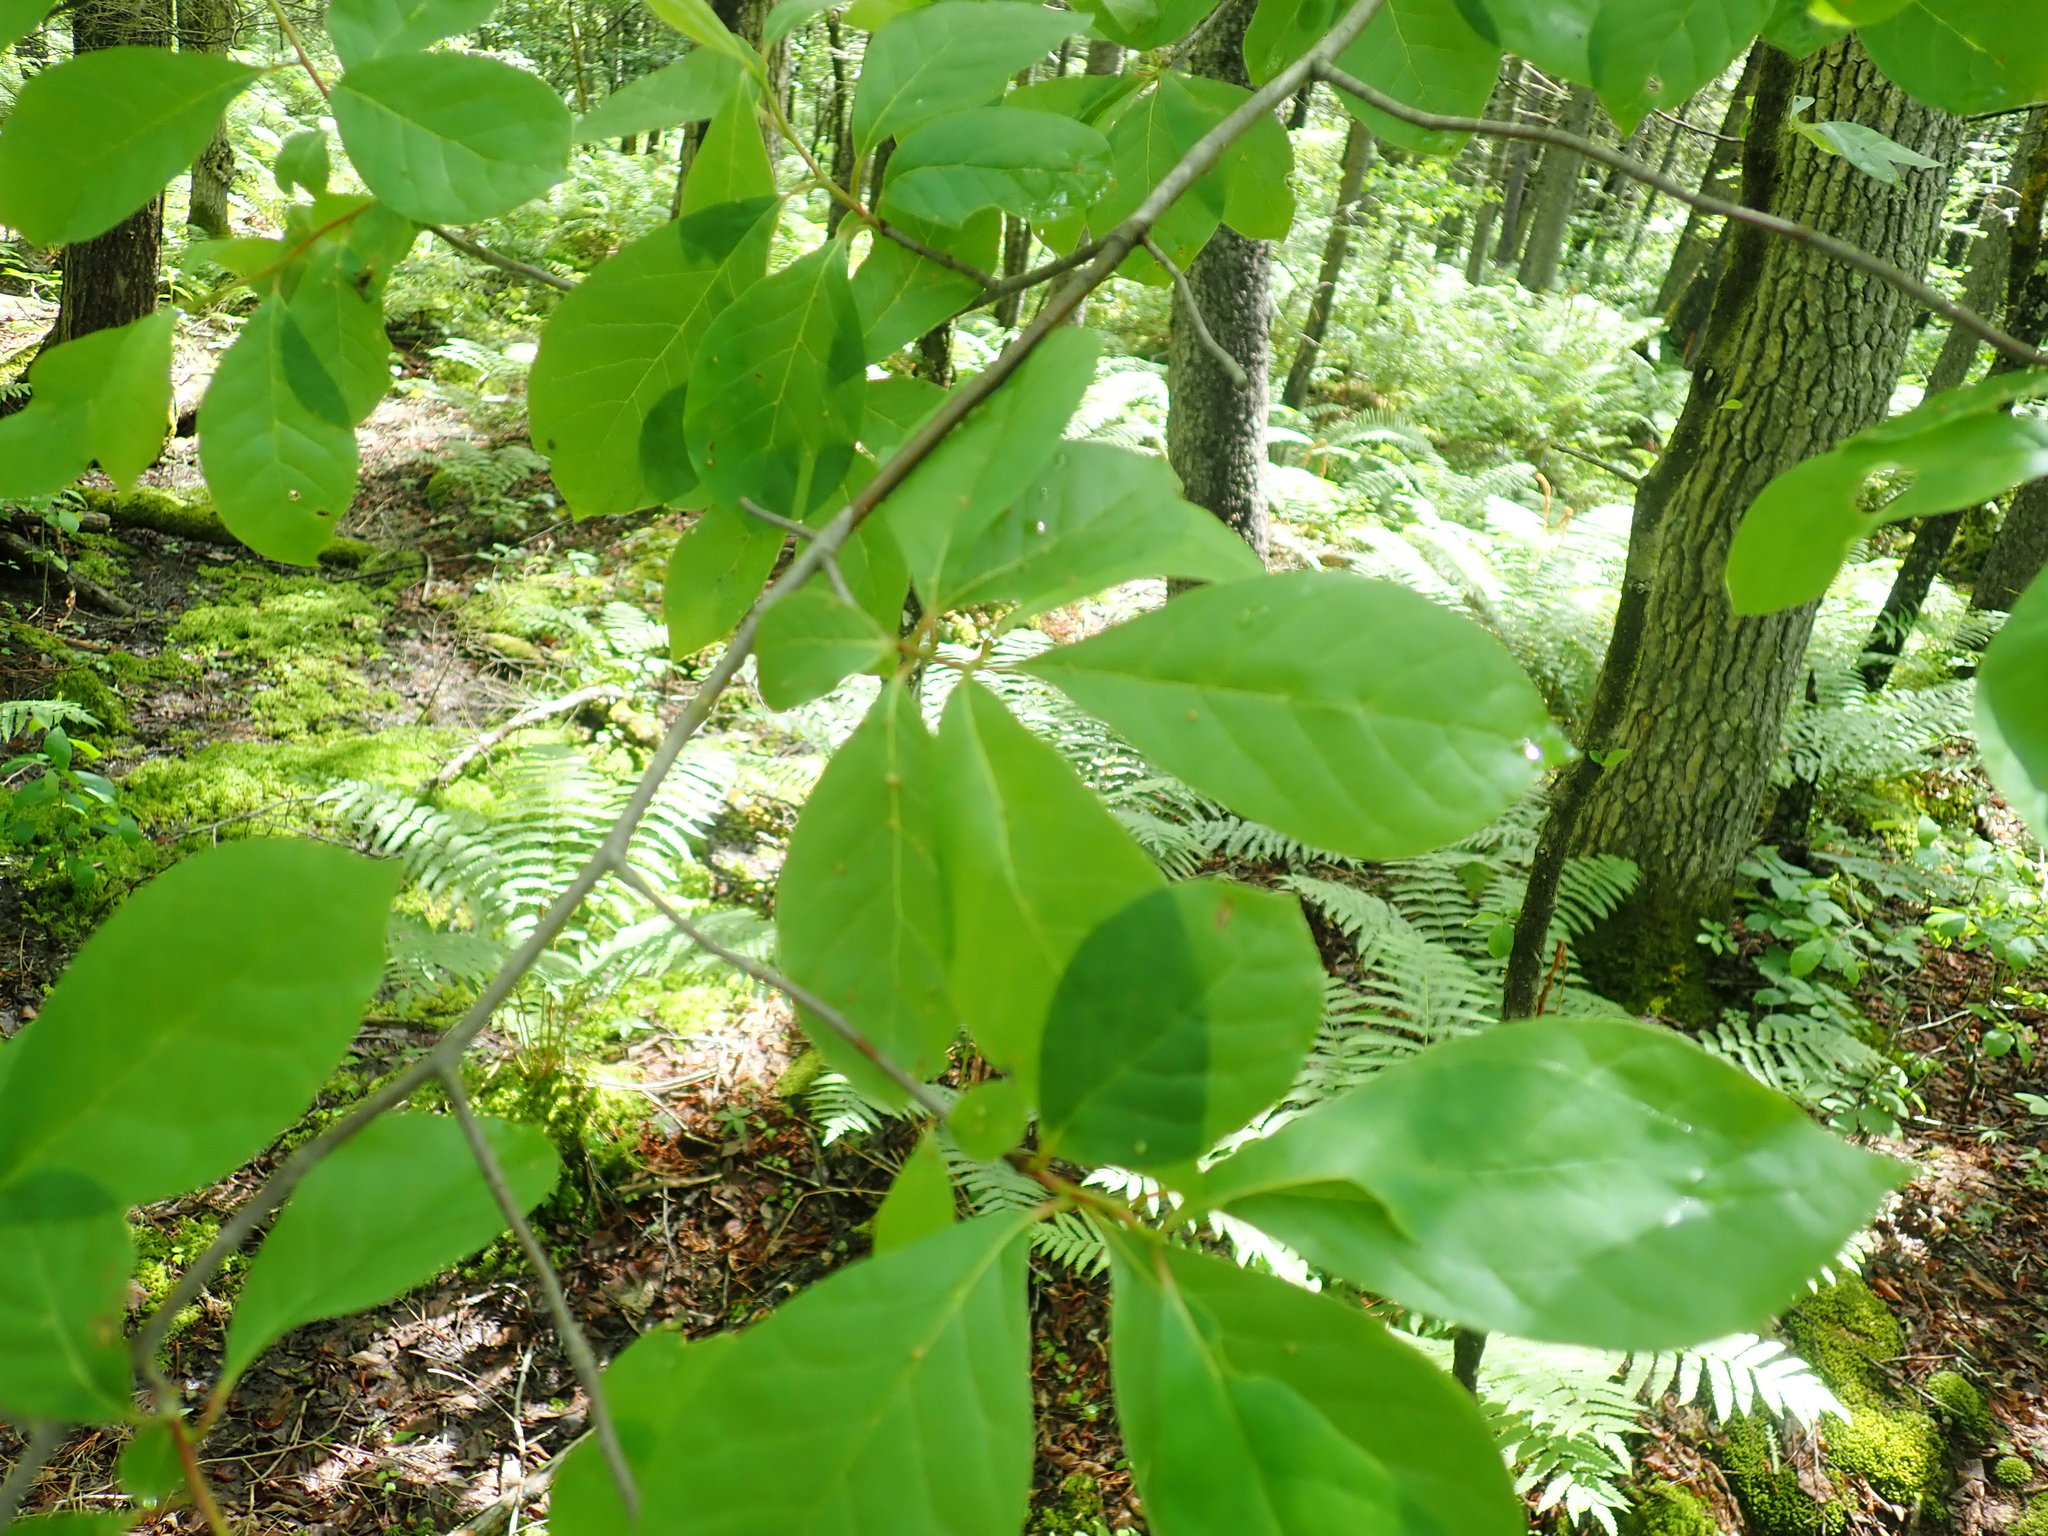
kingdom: Plantae
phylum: Tracheophyta
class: Magnoliopsida
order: Cornales
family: Nyssaceae
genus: Nyssa
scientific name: Nyssa sylvatica
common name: Black tupelo
